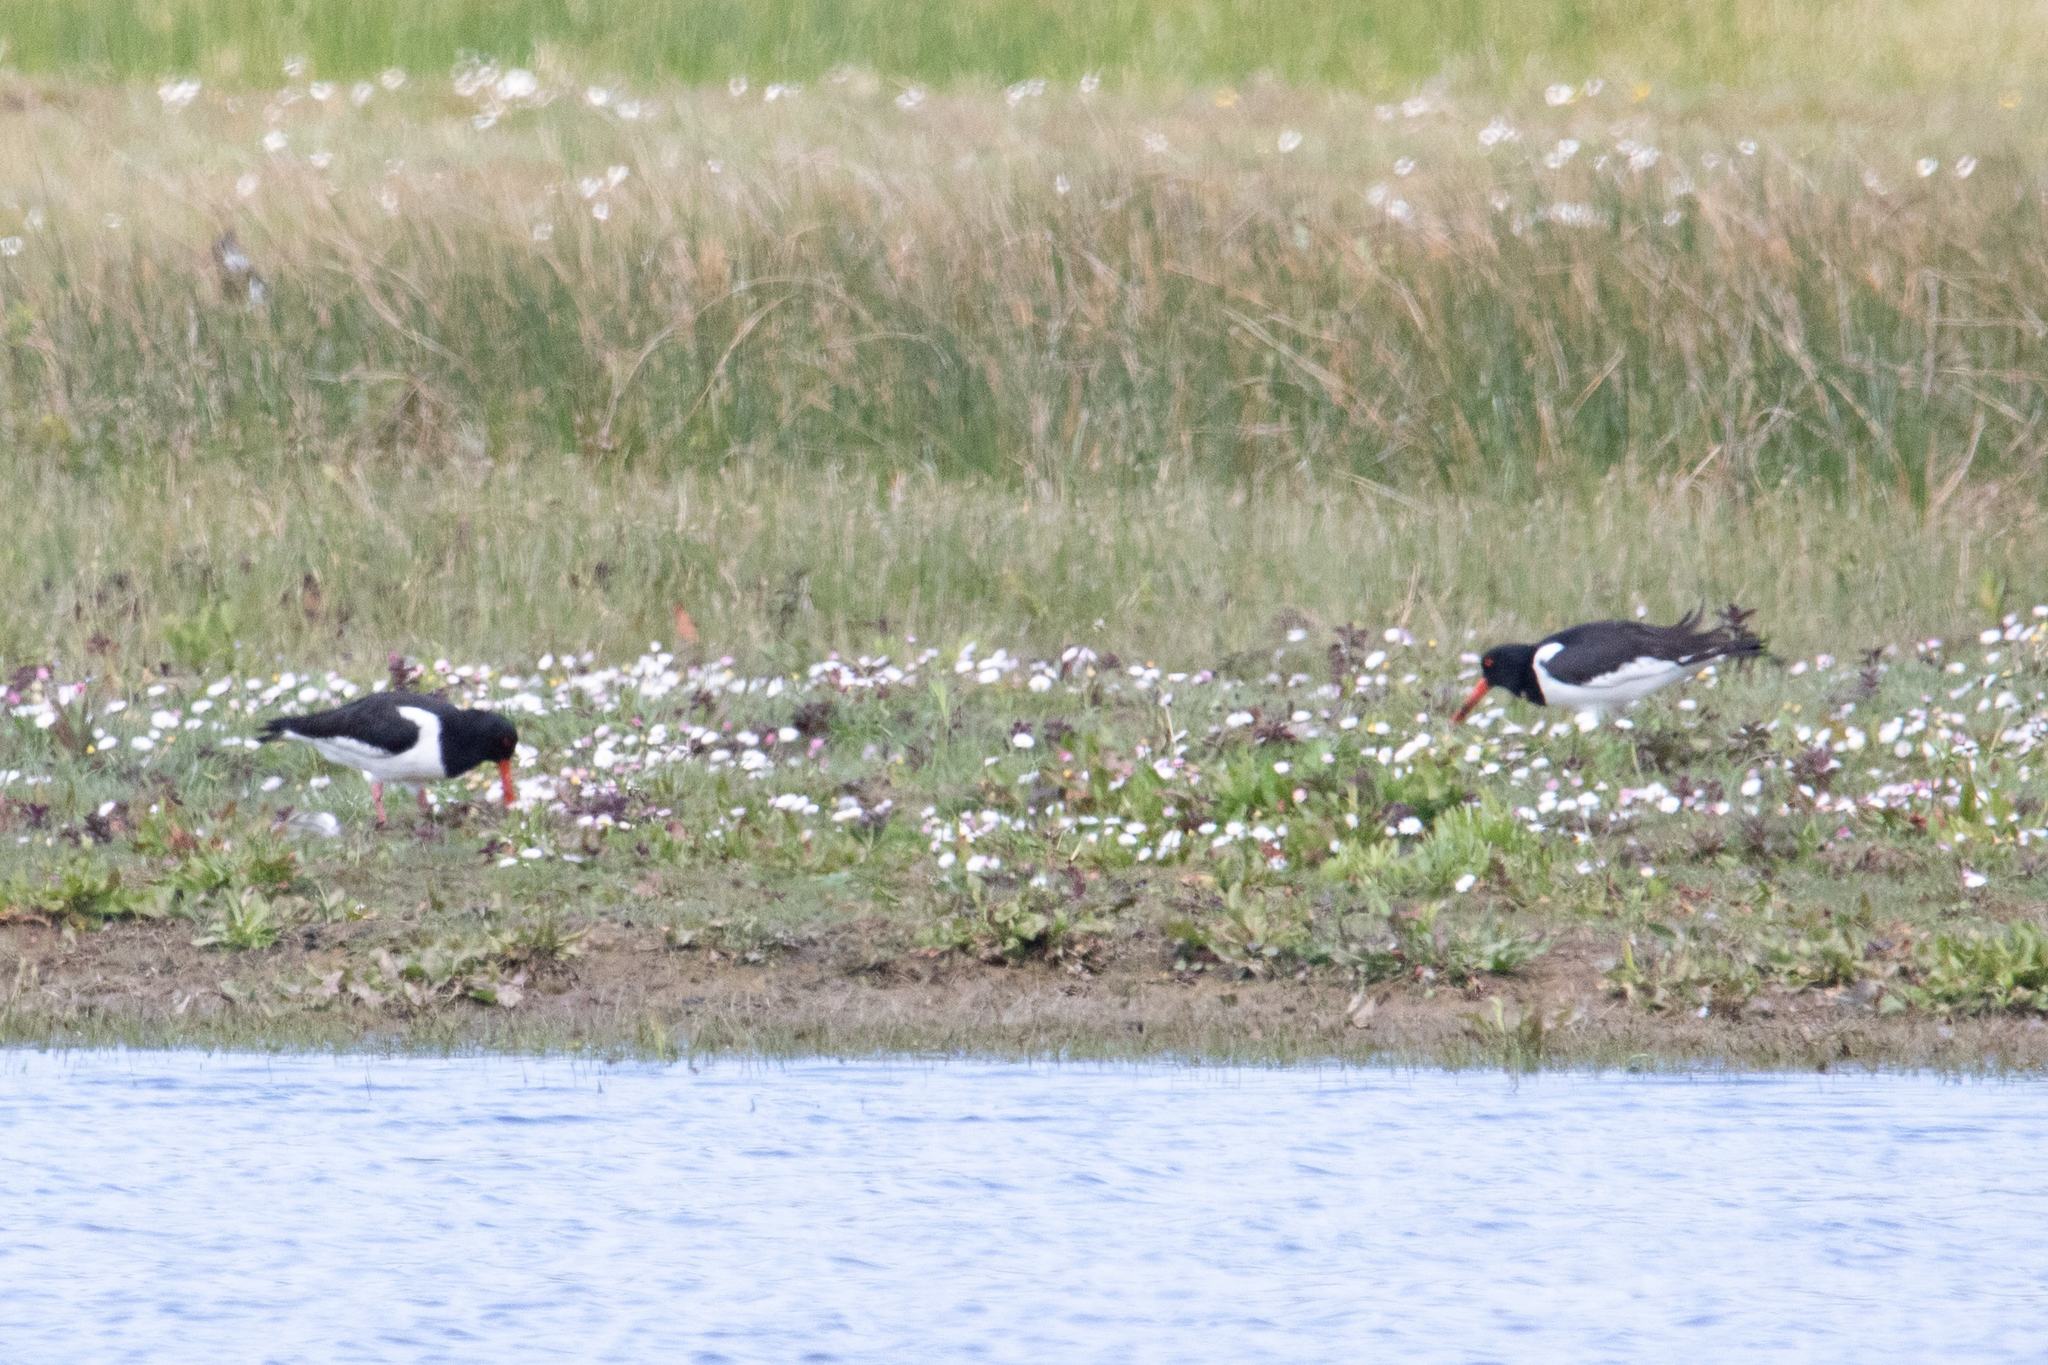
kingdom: Animalia
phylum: Chordata
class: Aves
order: Charadriiformes
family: Haematopodidae
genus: Haematopus
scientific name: Haematopus ostralegus
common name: Eurasian oystercatcher
